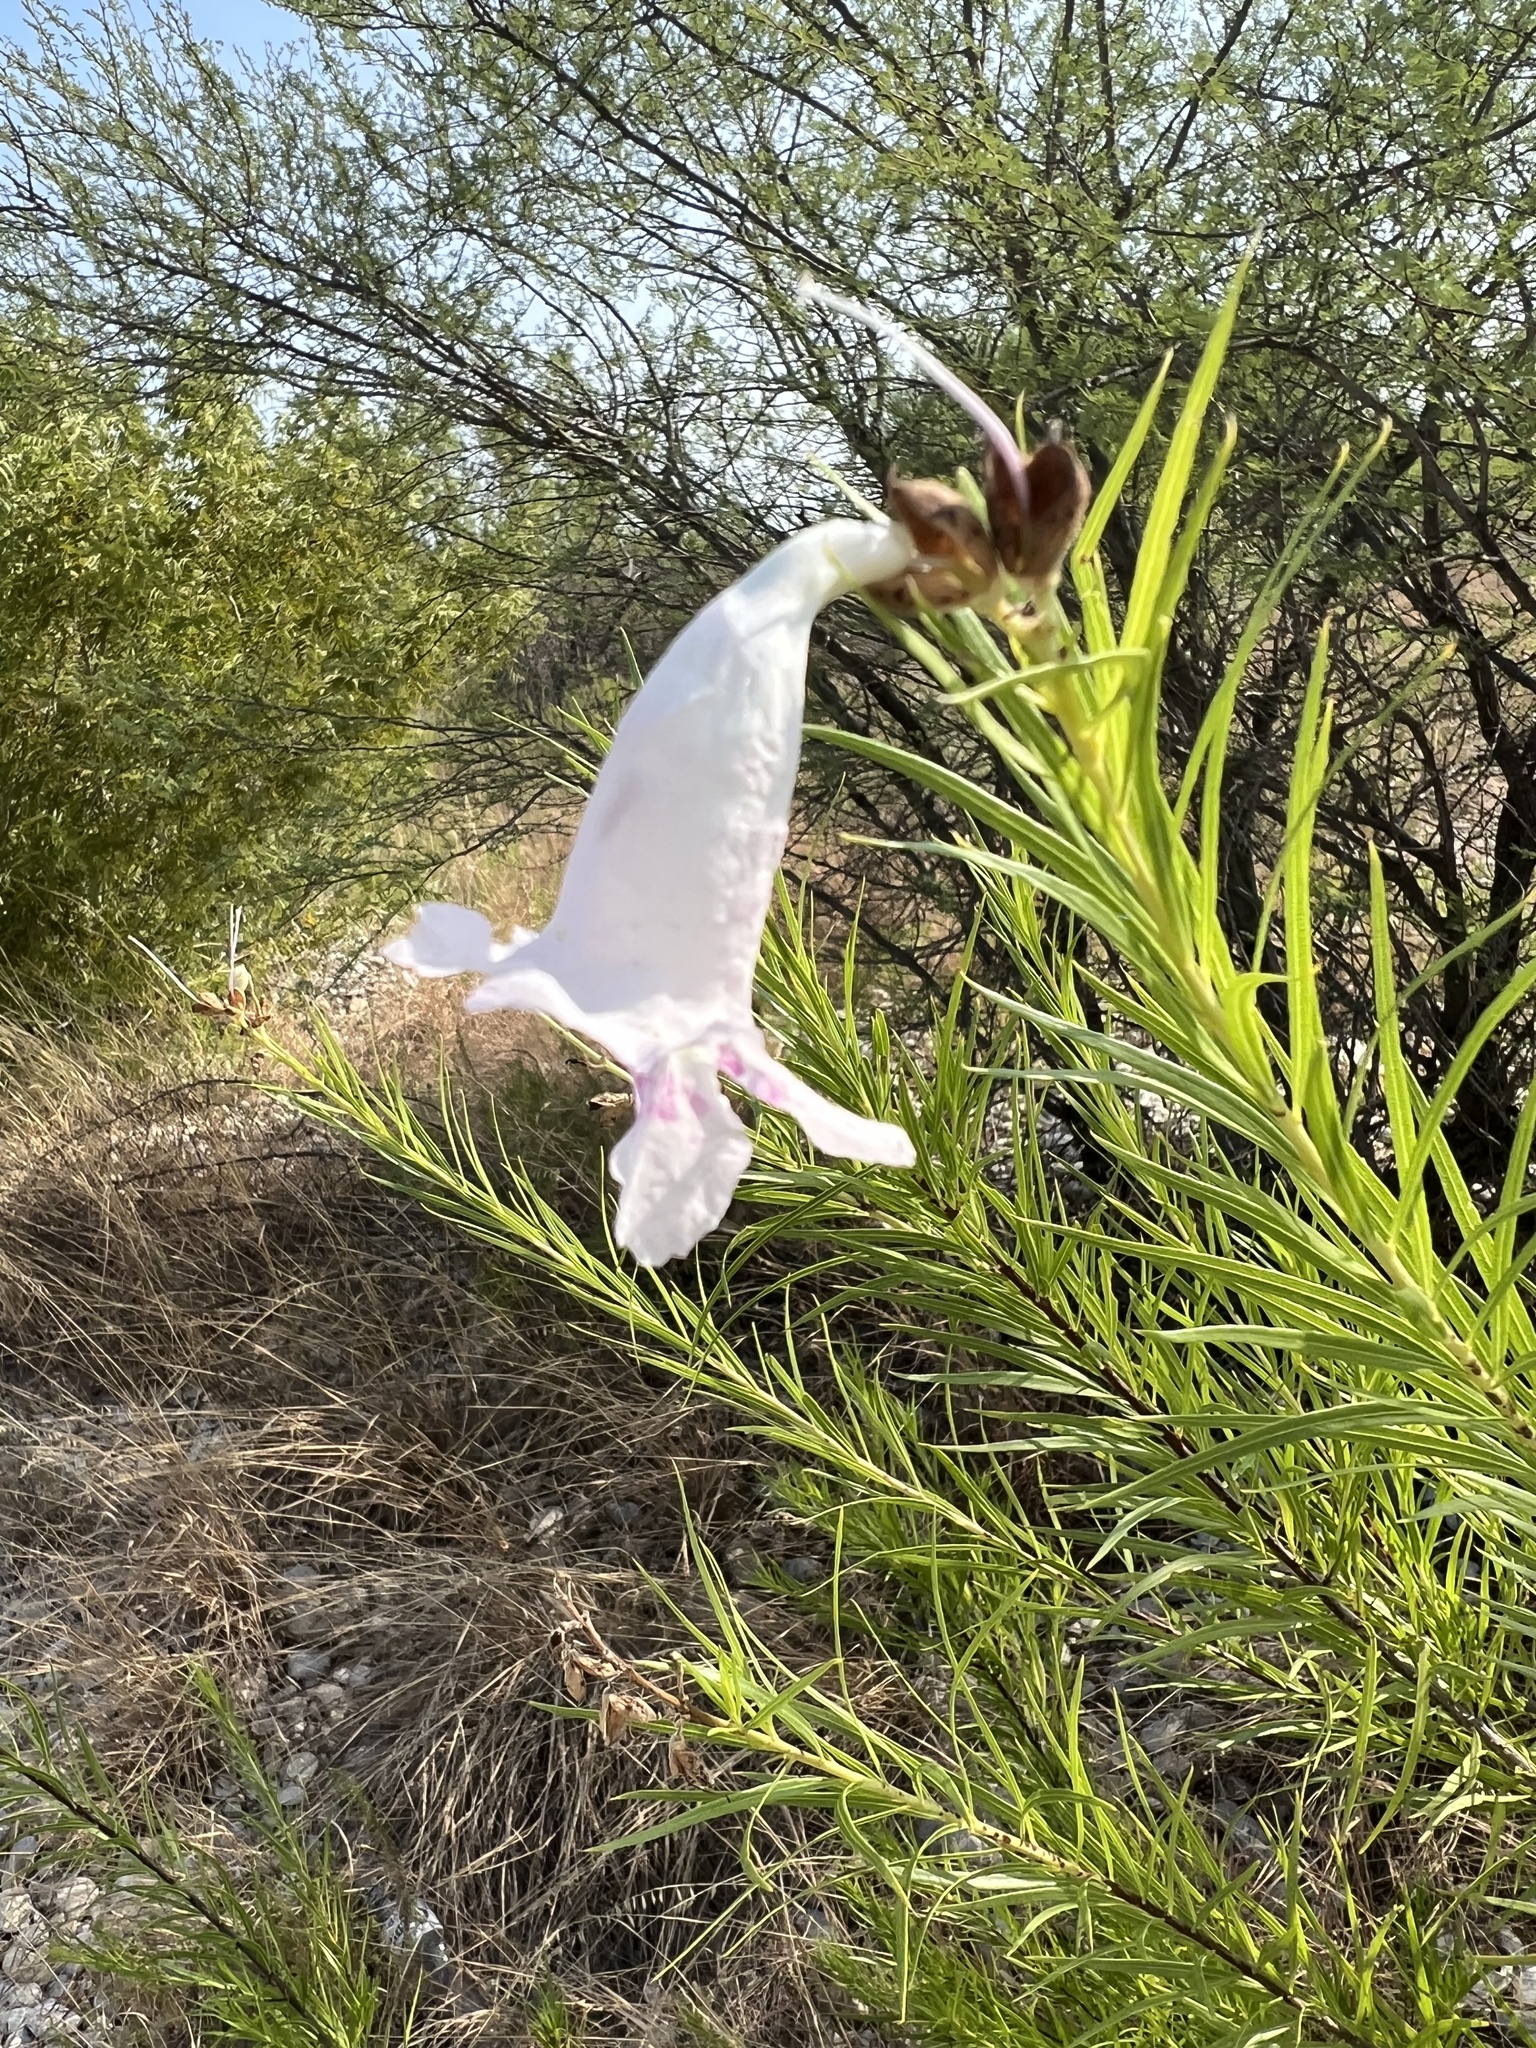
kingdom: Plantae
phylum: Tracheophyta
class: Magnoliopsida
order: Lamiales
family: Bignoniaceae
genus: Chilopsis
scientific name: Chilopsis linearis
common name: Desert-willow
